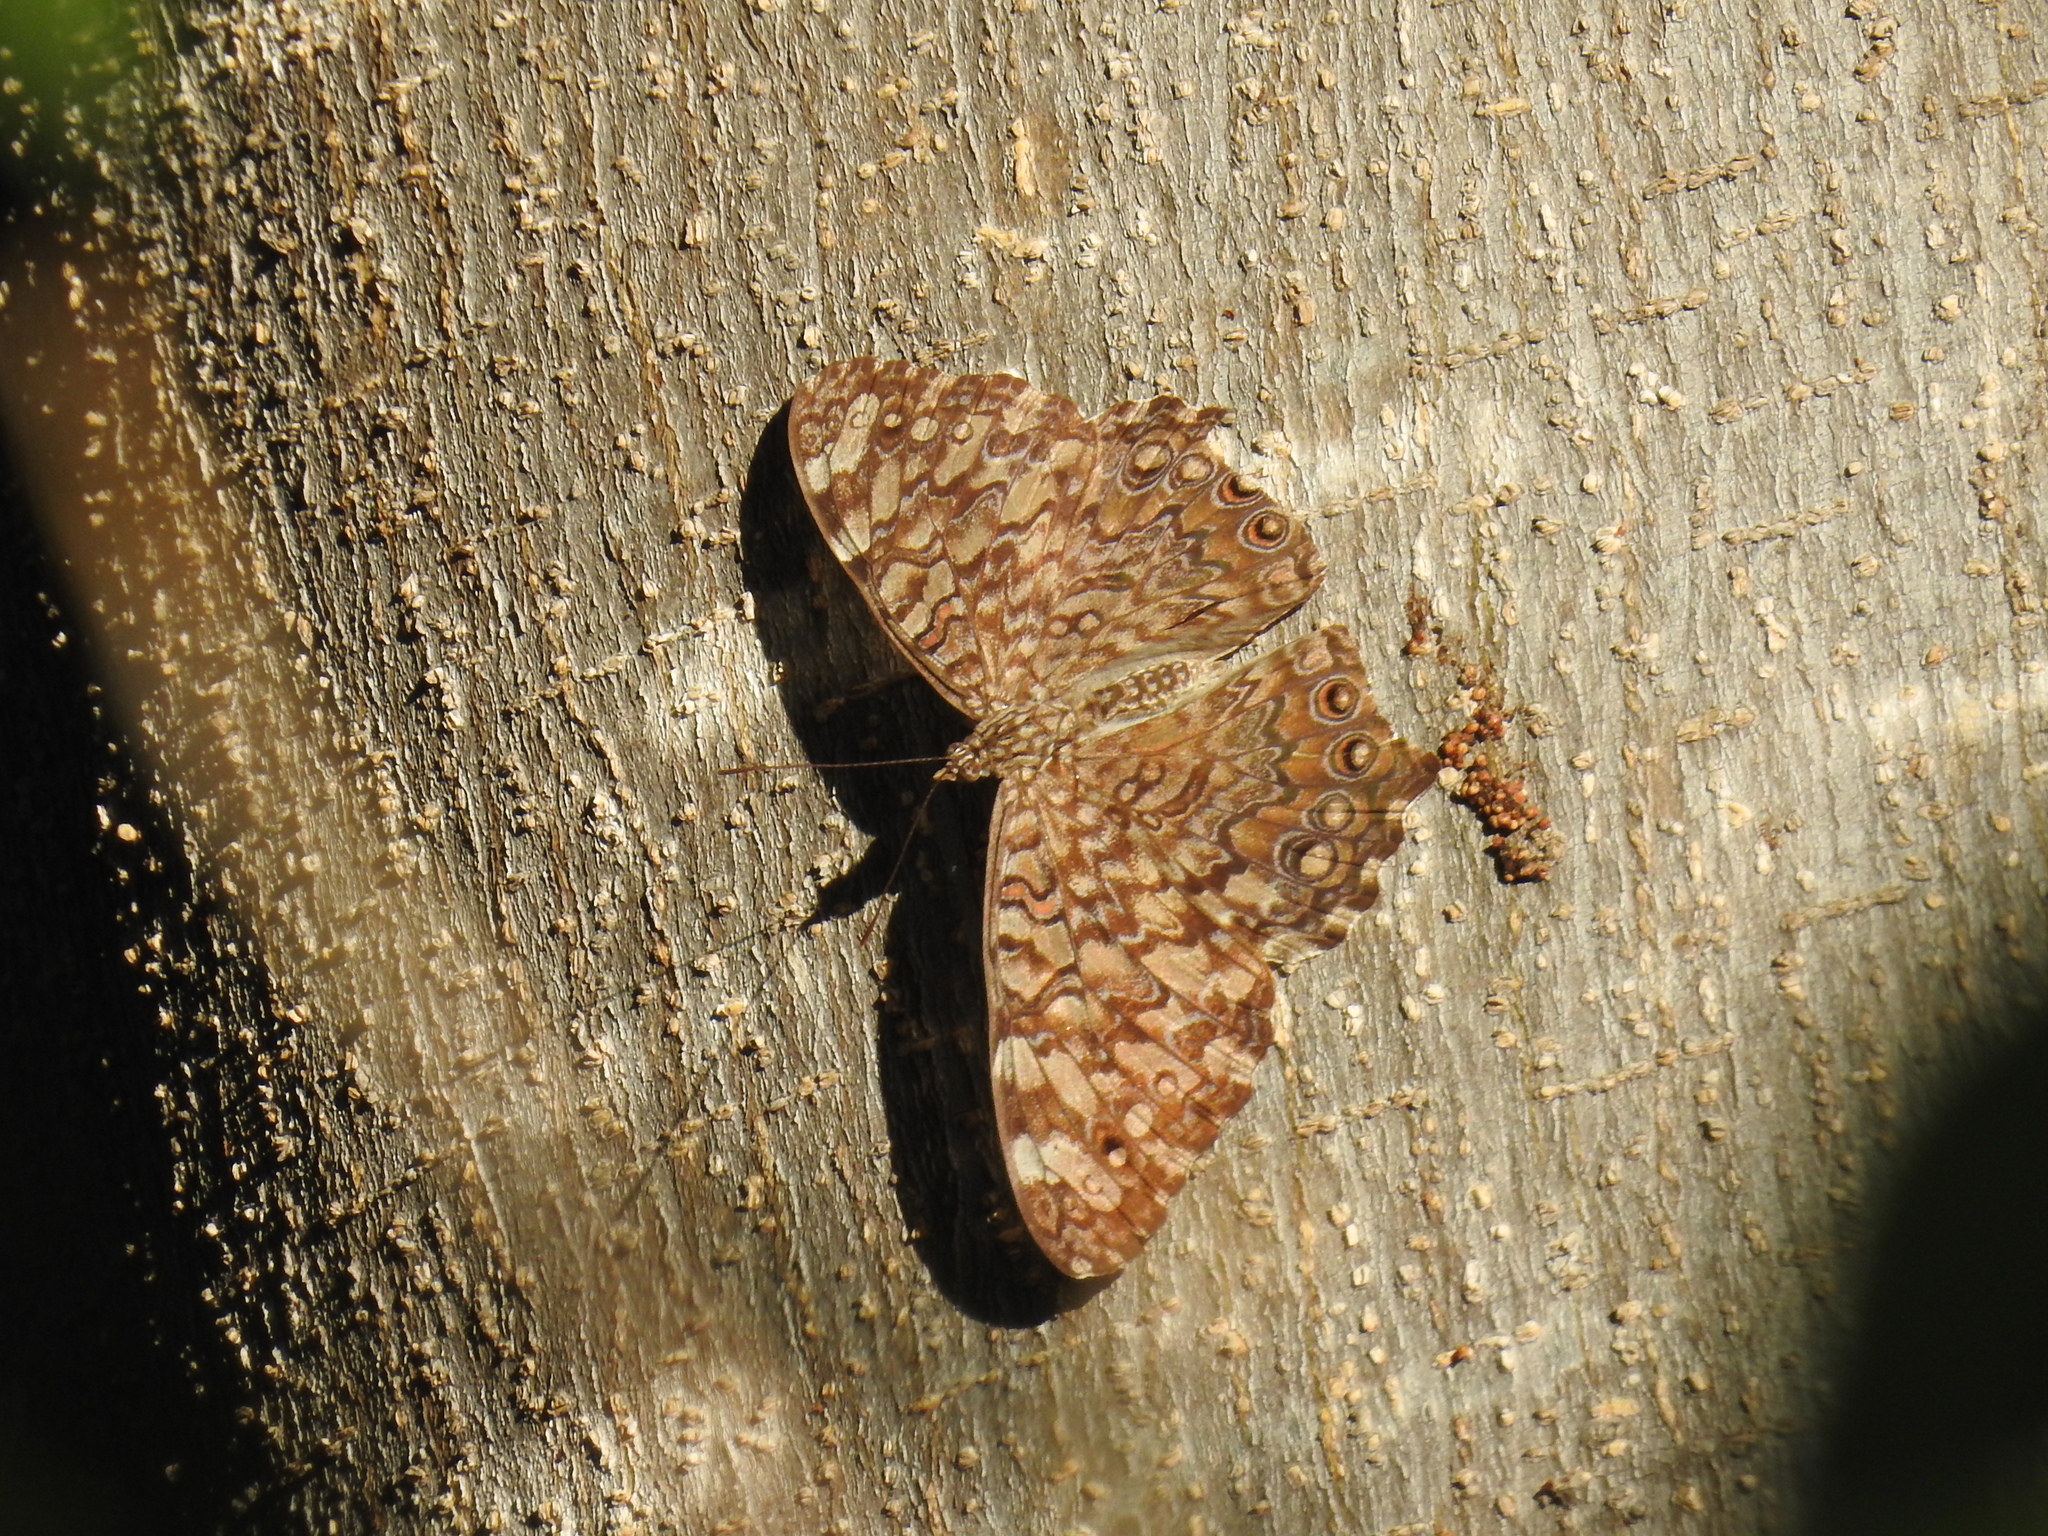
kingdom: Animalia
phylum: Arthropoda
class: Insecta
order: Lepidoptera
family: Nymphalidae
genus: Hamadryas
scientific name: Hamadryas februa
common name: Gray cracker
